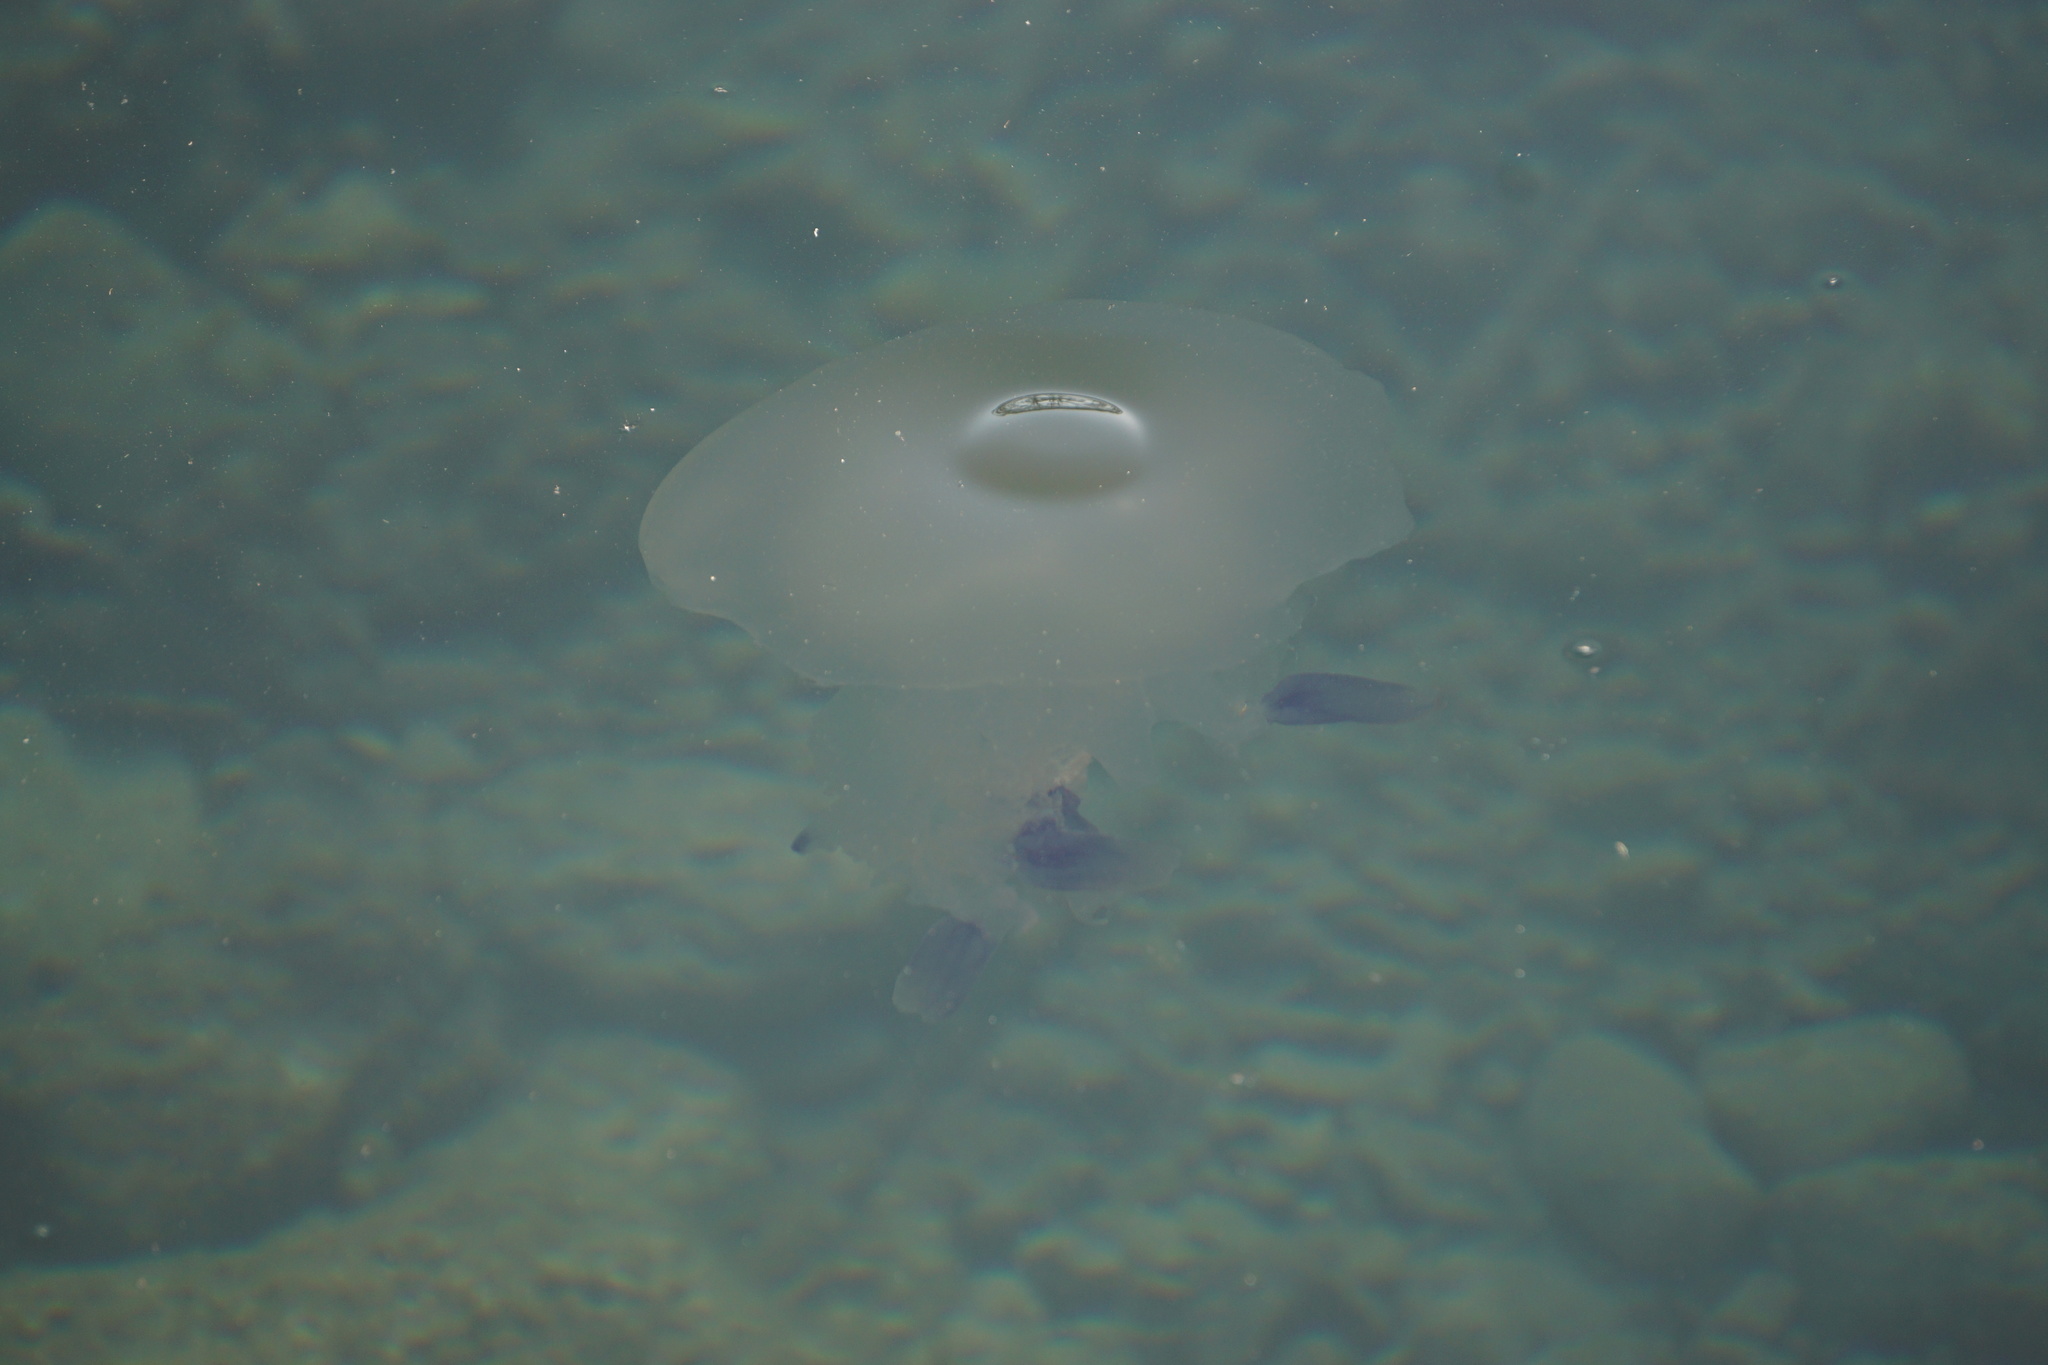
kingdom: Animalia
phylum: Cnidaria
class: Scyphozoa
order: Rhizostomeae
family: Rhizostomatidae
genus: Rhizostoma
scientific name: Rhizostoma pulmo
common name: Barrel jellyfish
